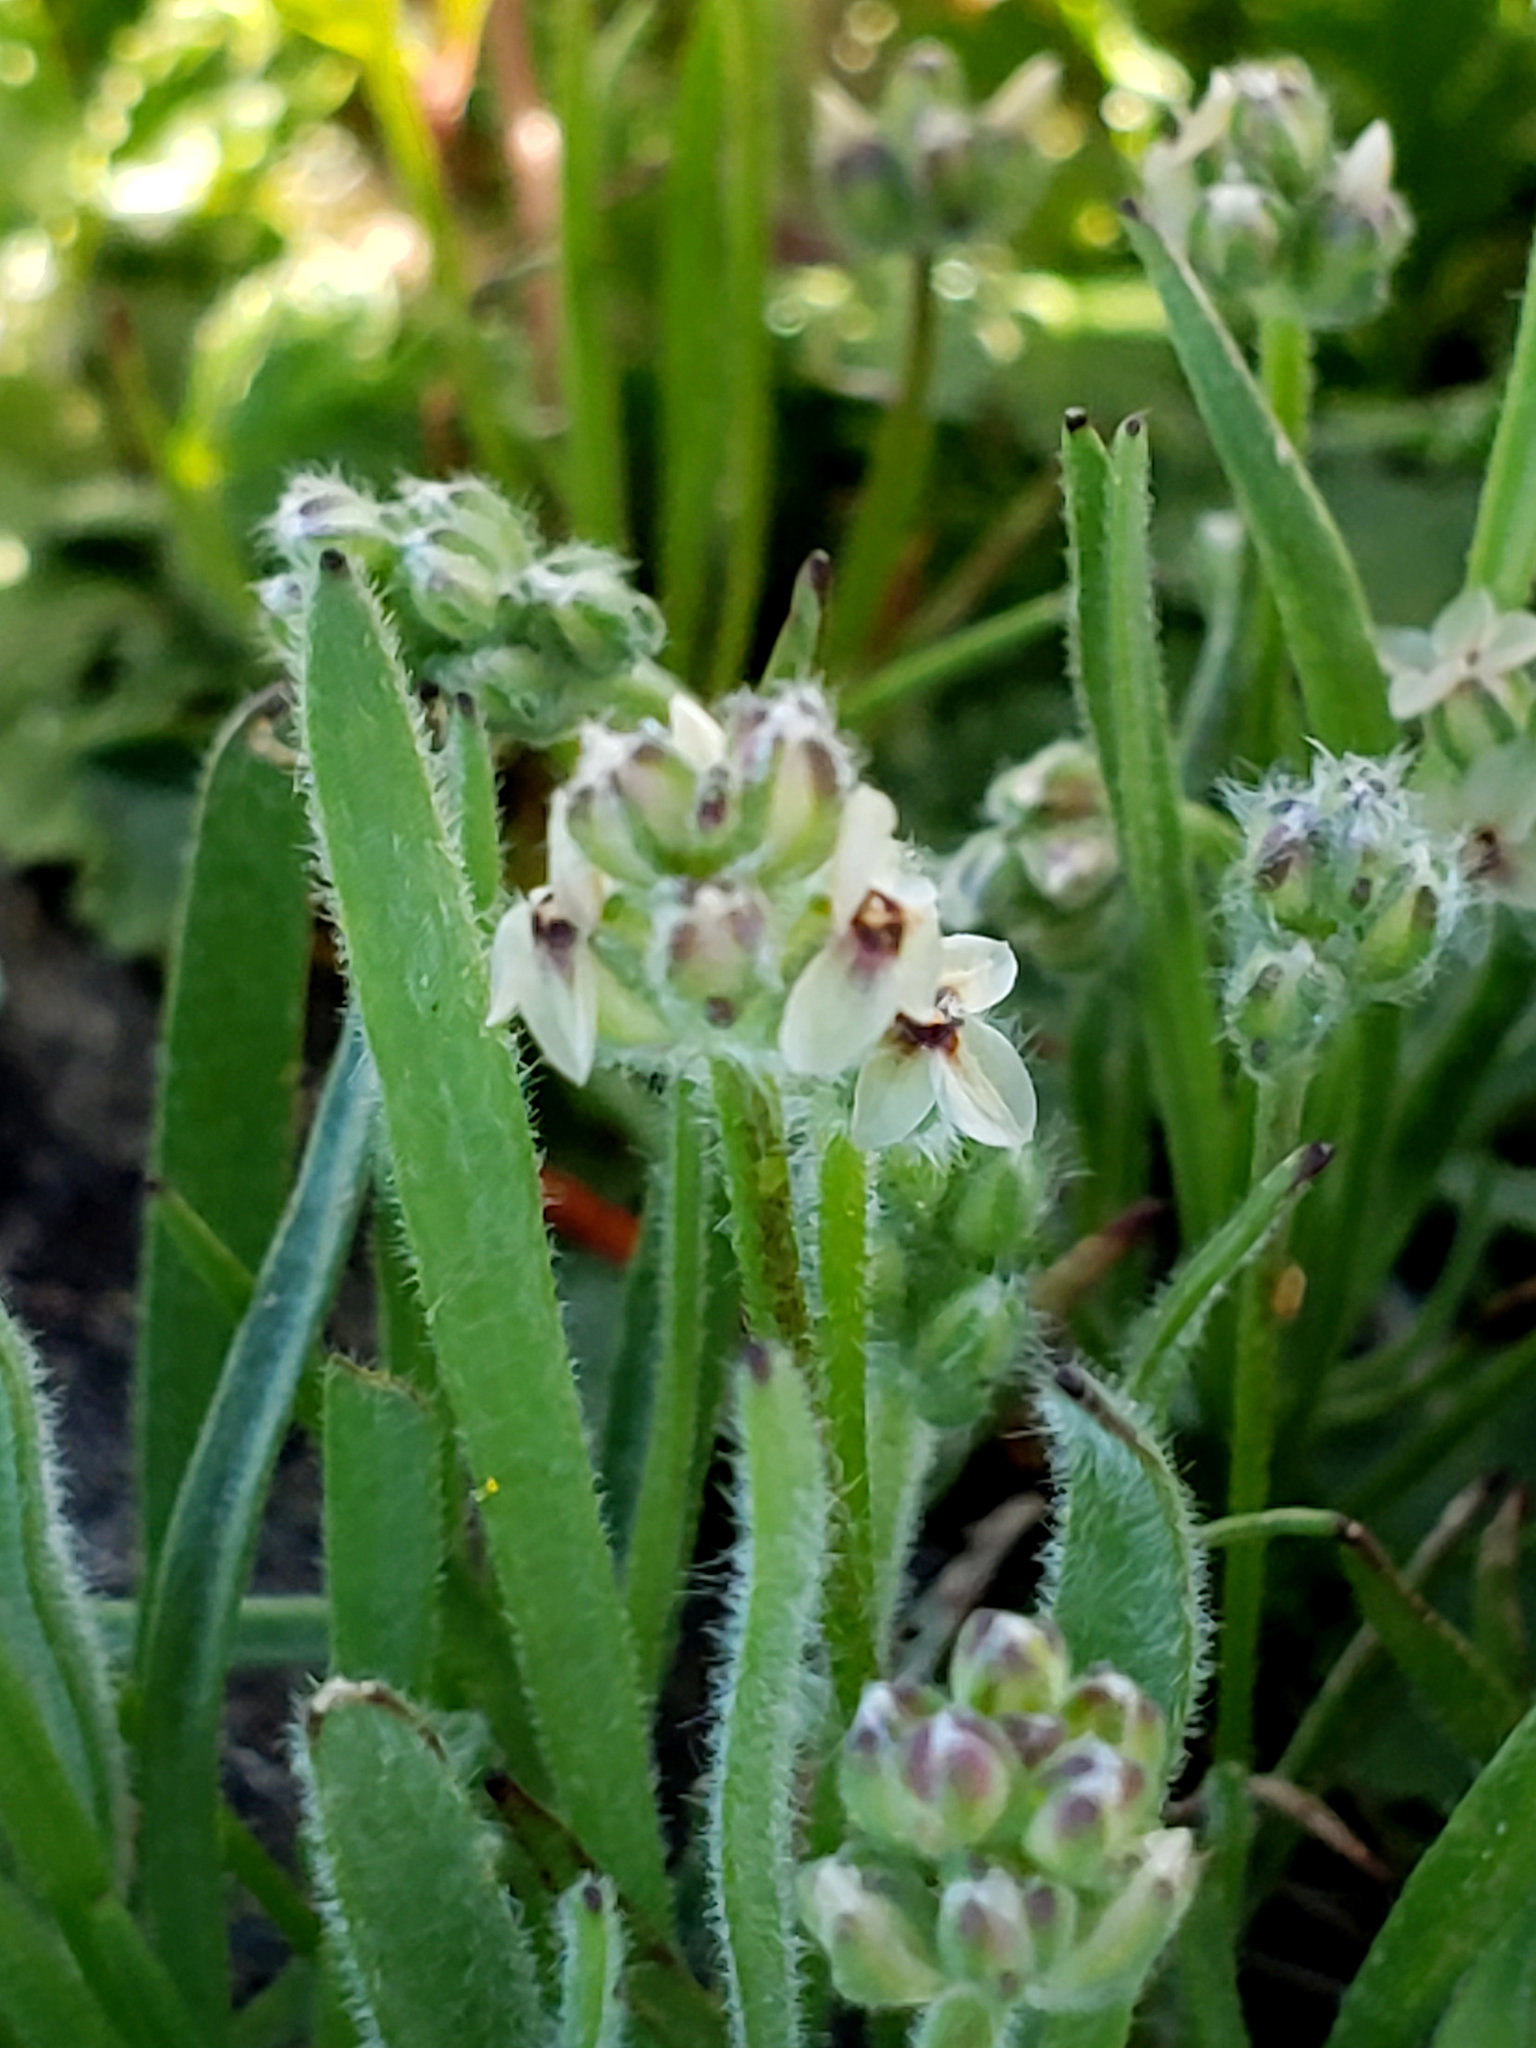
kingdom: Plantae
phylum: Tracheophyta
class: Magnoliopsida
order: Lamiales
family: Plantaginaceae
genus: Plantago
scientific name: Plantago erecta
